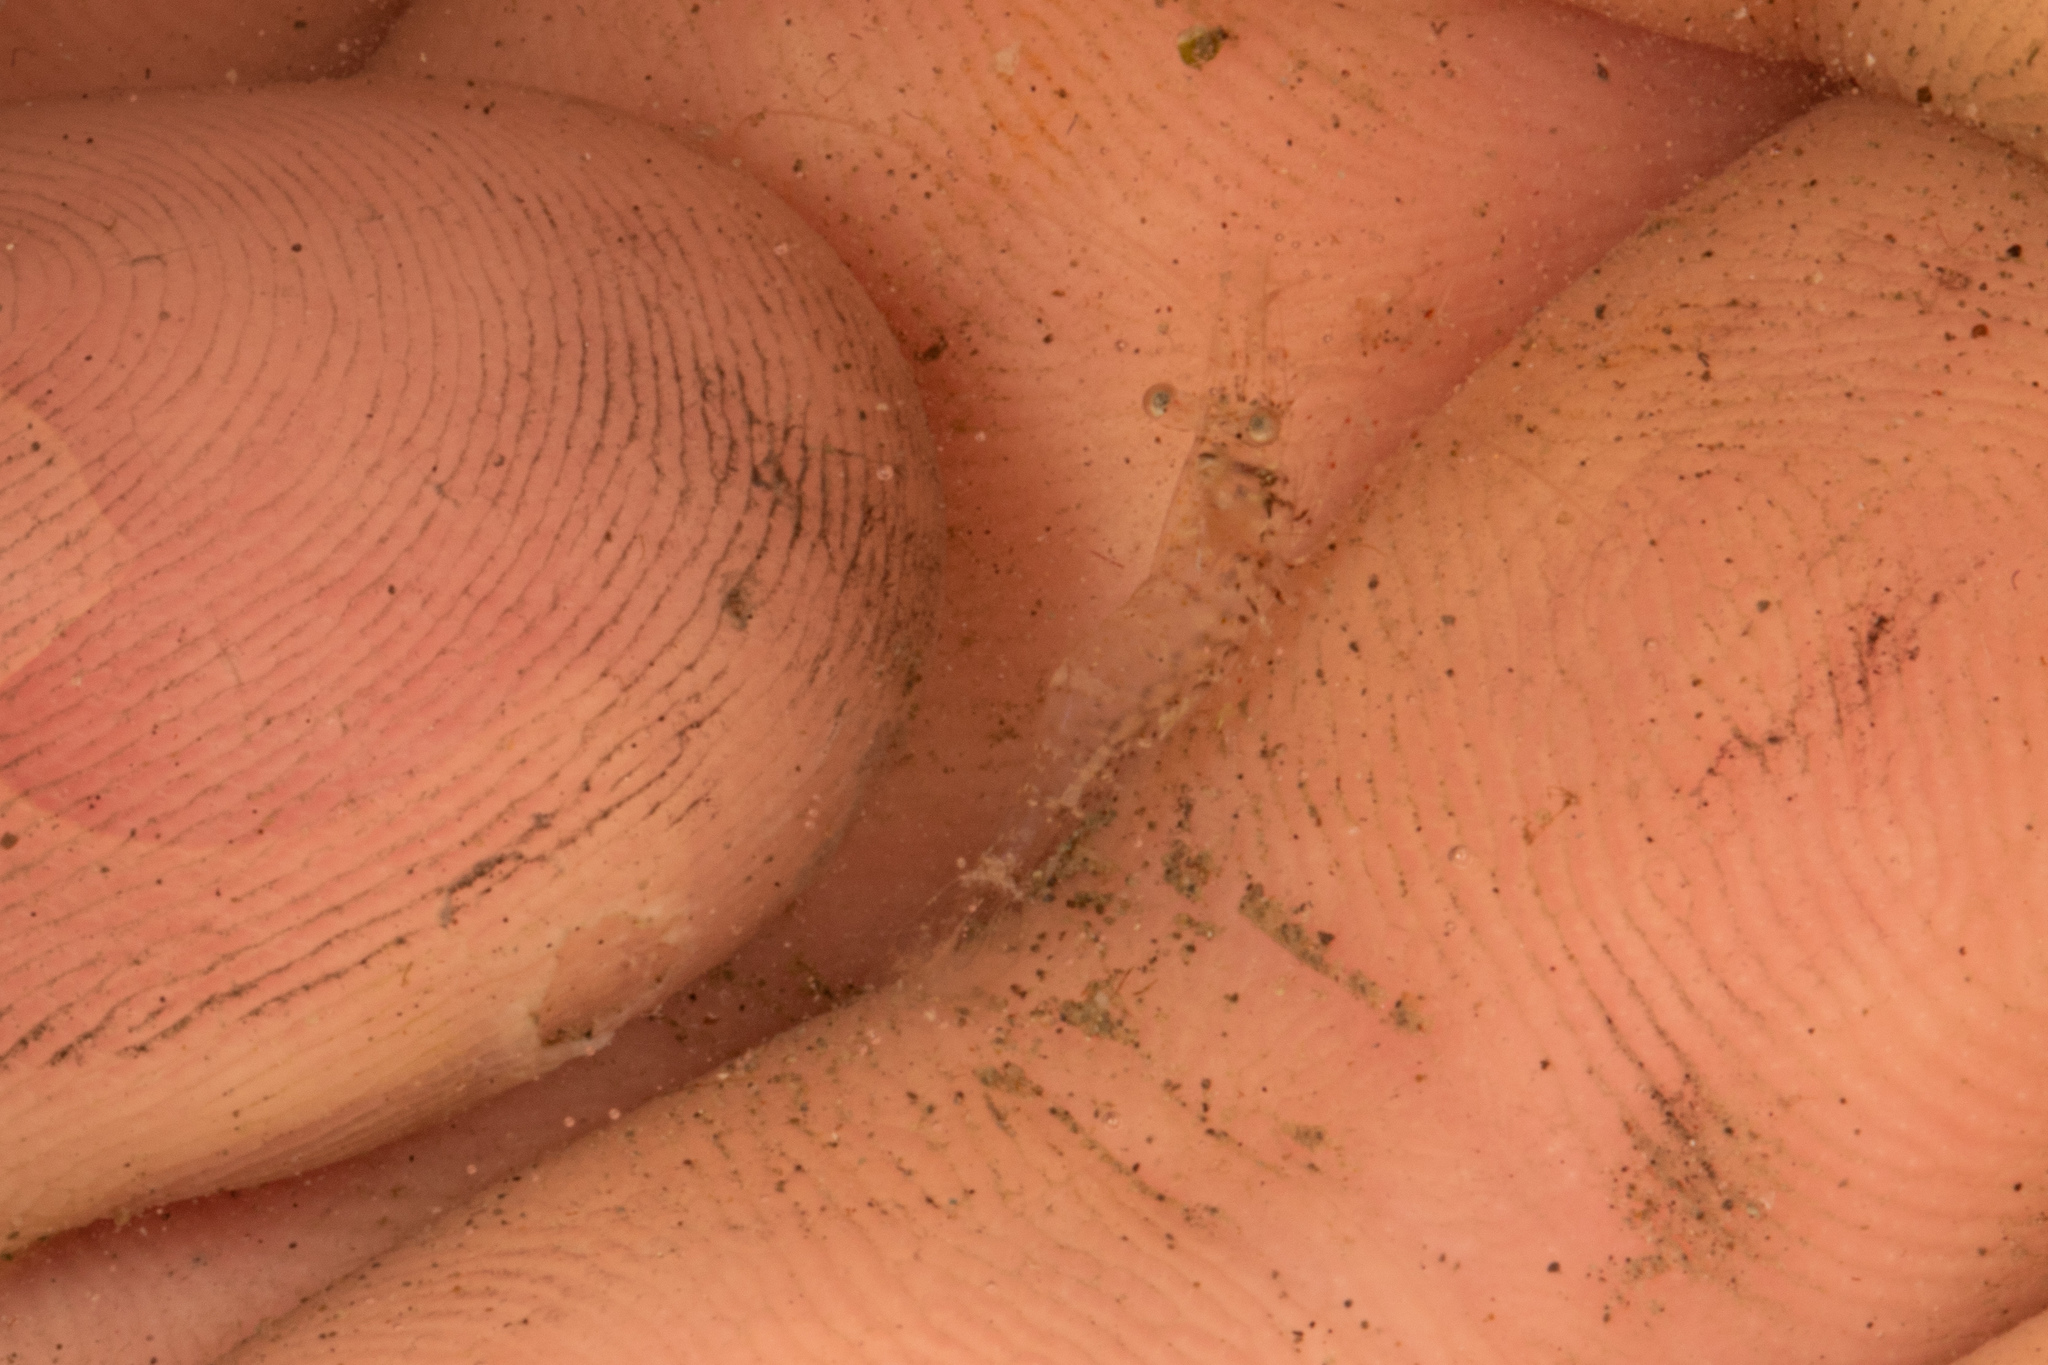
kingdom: Animalia
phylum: Arthropoda
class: Malacostraca
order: Decapoda
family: Palaemonidae
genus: Palaemon
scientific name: Palaemon affinis
